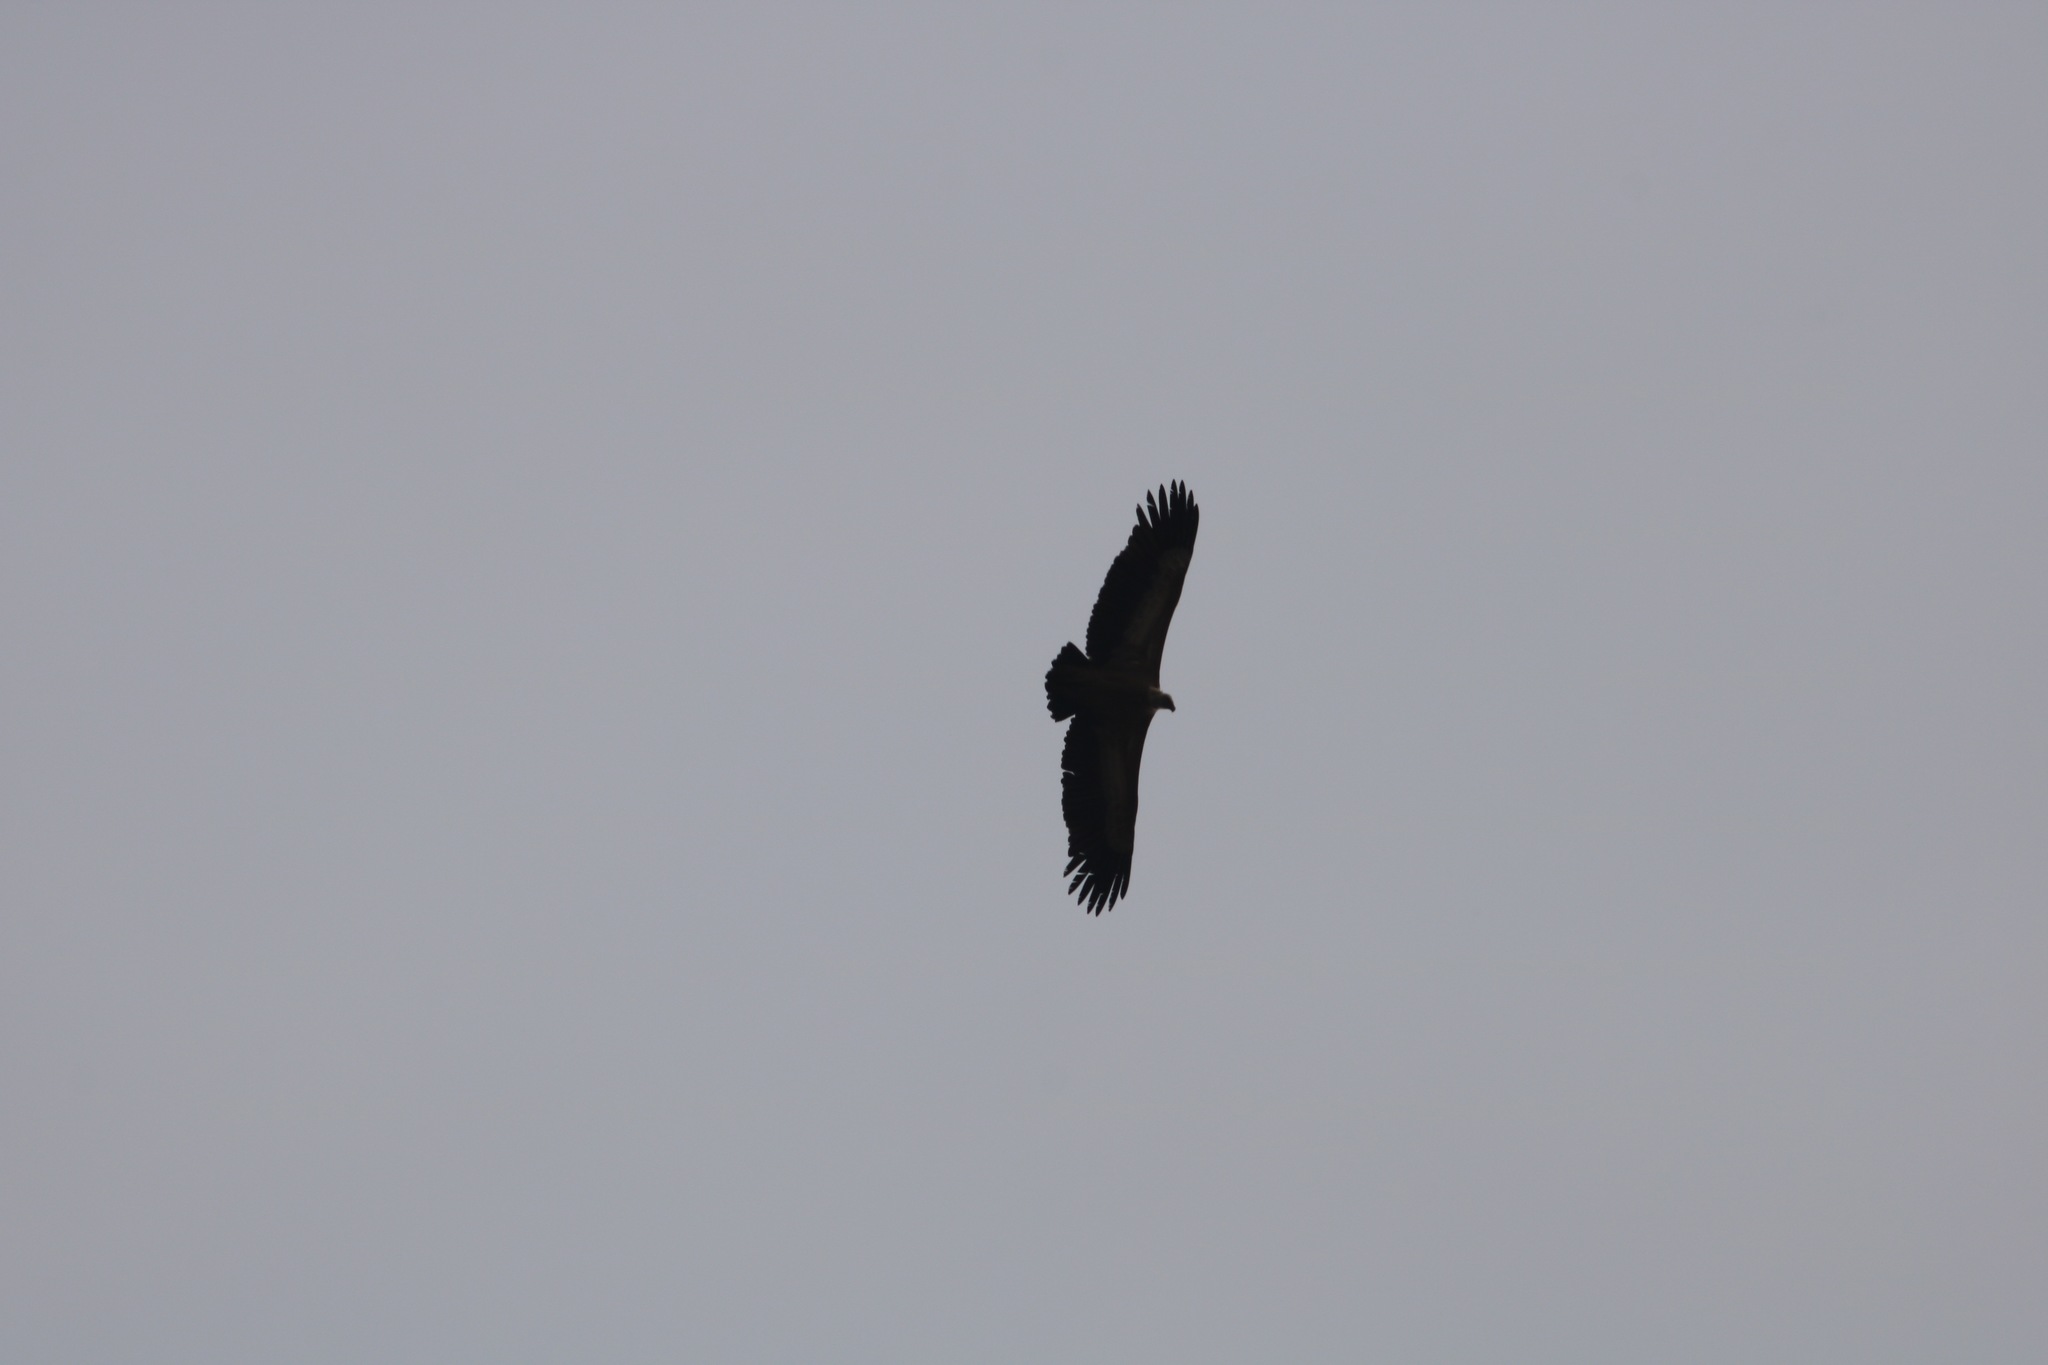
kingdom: Animalia
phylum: Chordata
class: Aves
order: Accipitriformes
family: Accipitridae
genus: Gyps
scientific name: Gyps fulvus
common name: Griffon vulture
